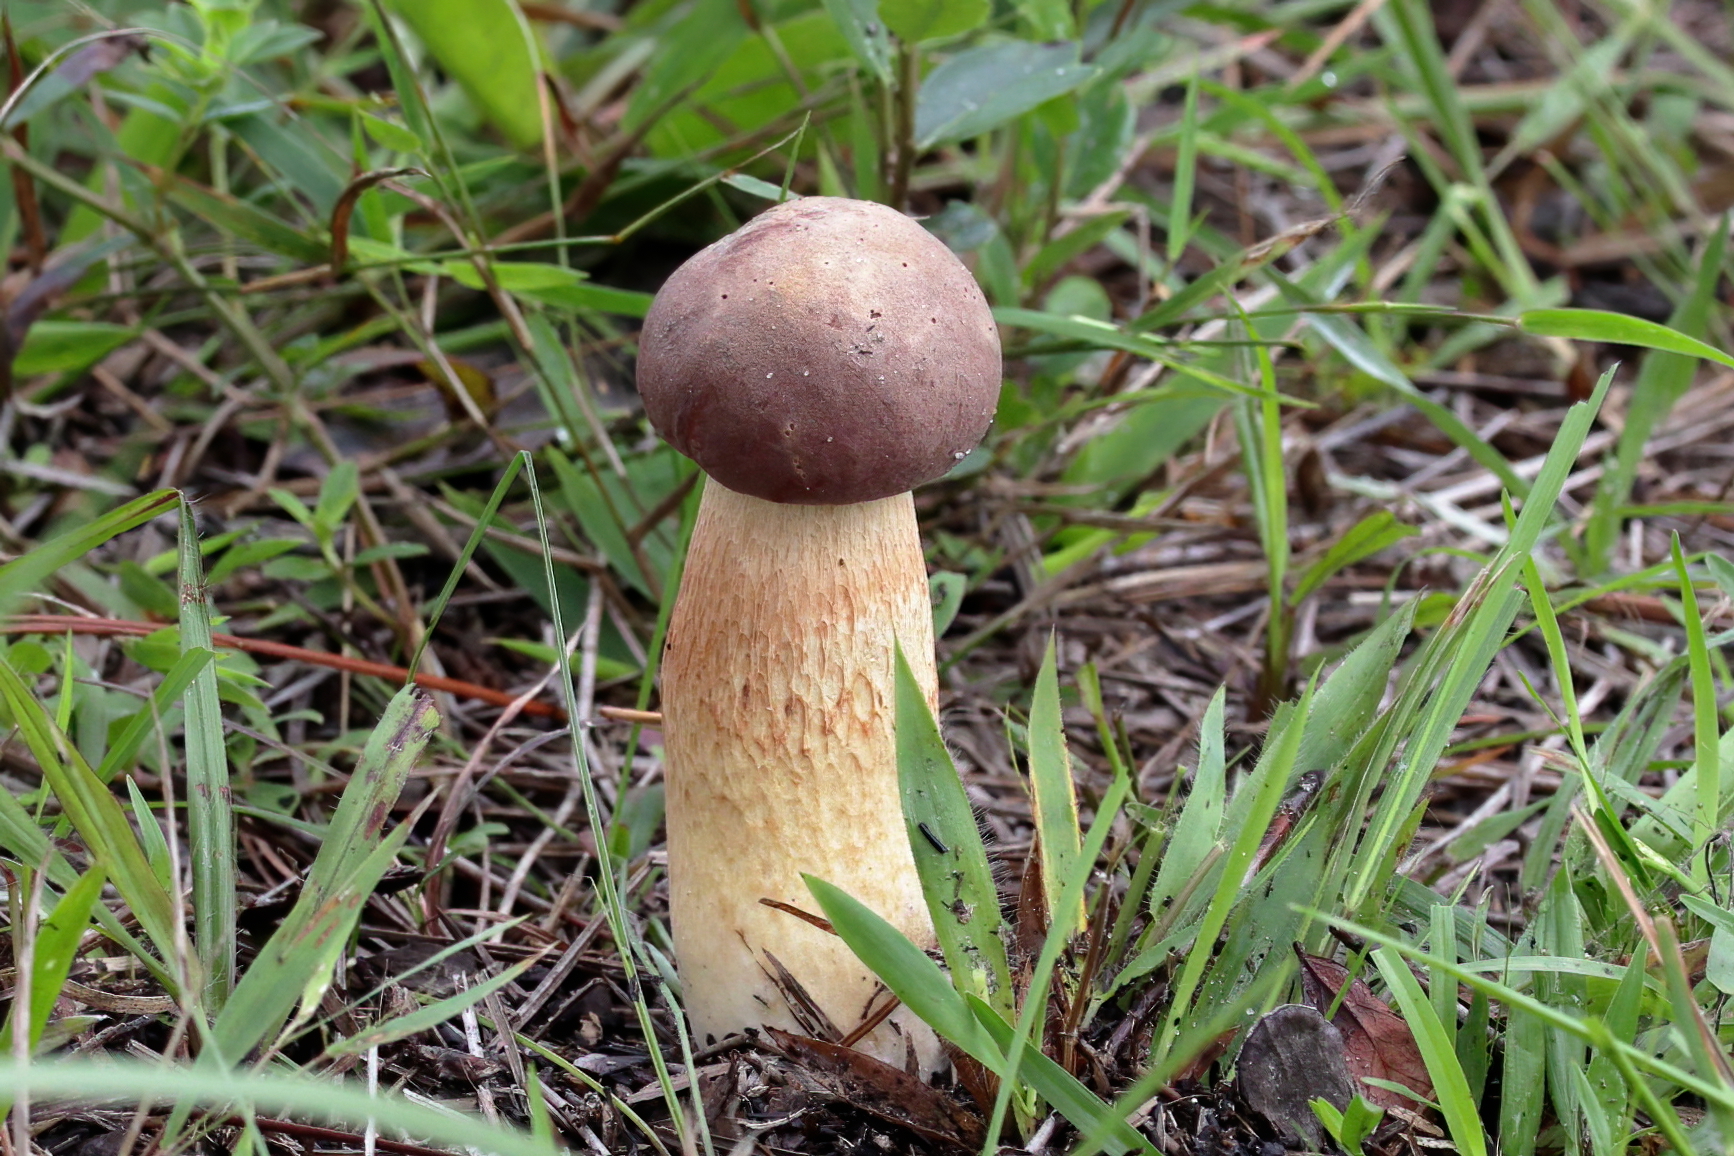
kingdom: Fungi
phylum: Basidiomycota
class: Agaricomycetes
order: Boletales
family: Boletaceae
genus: Boletus
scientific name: Boletus pseudopinophilus
